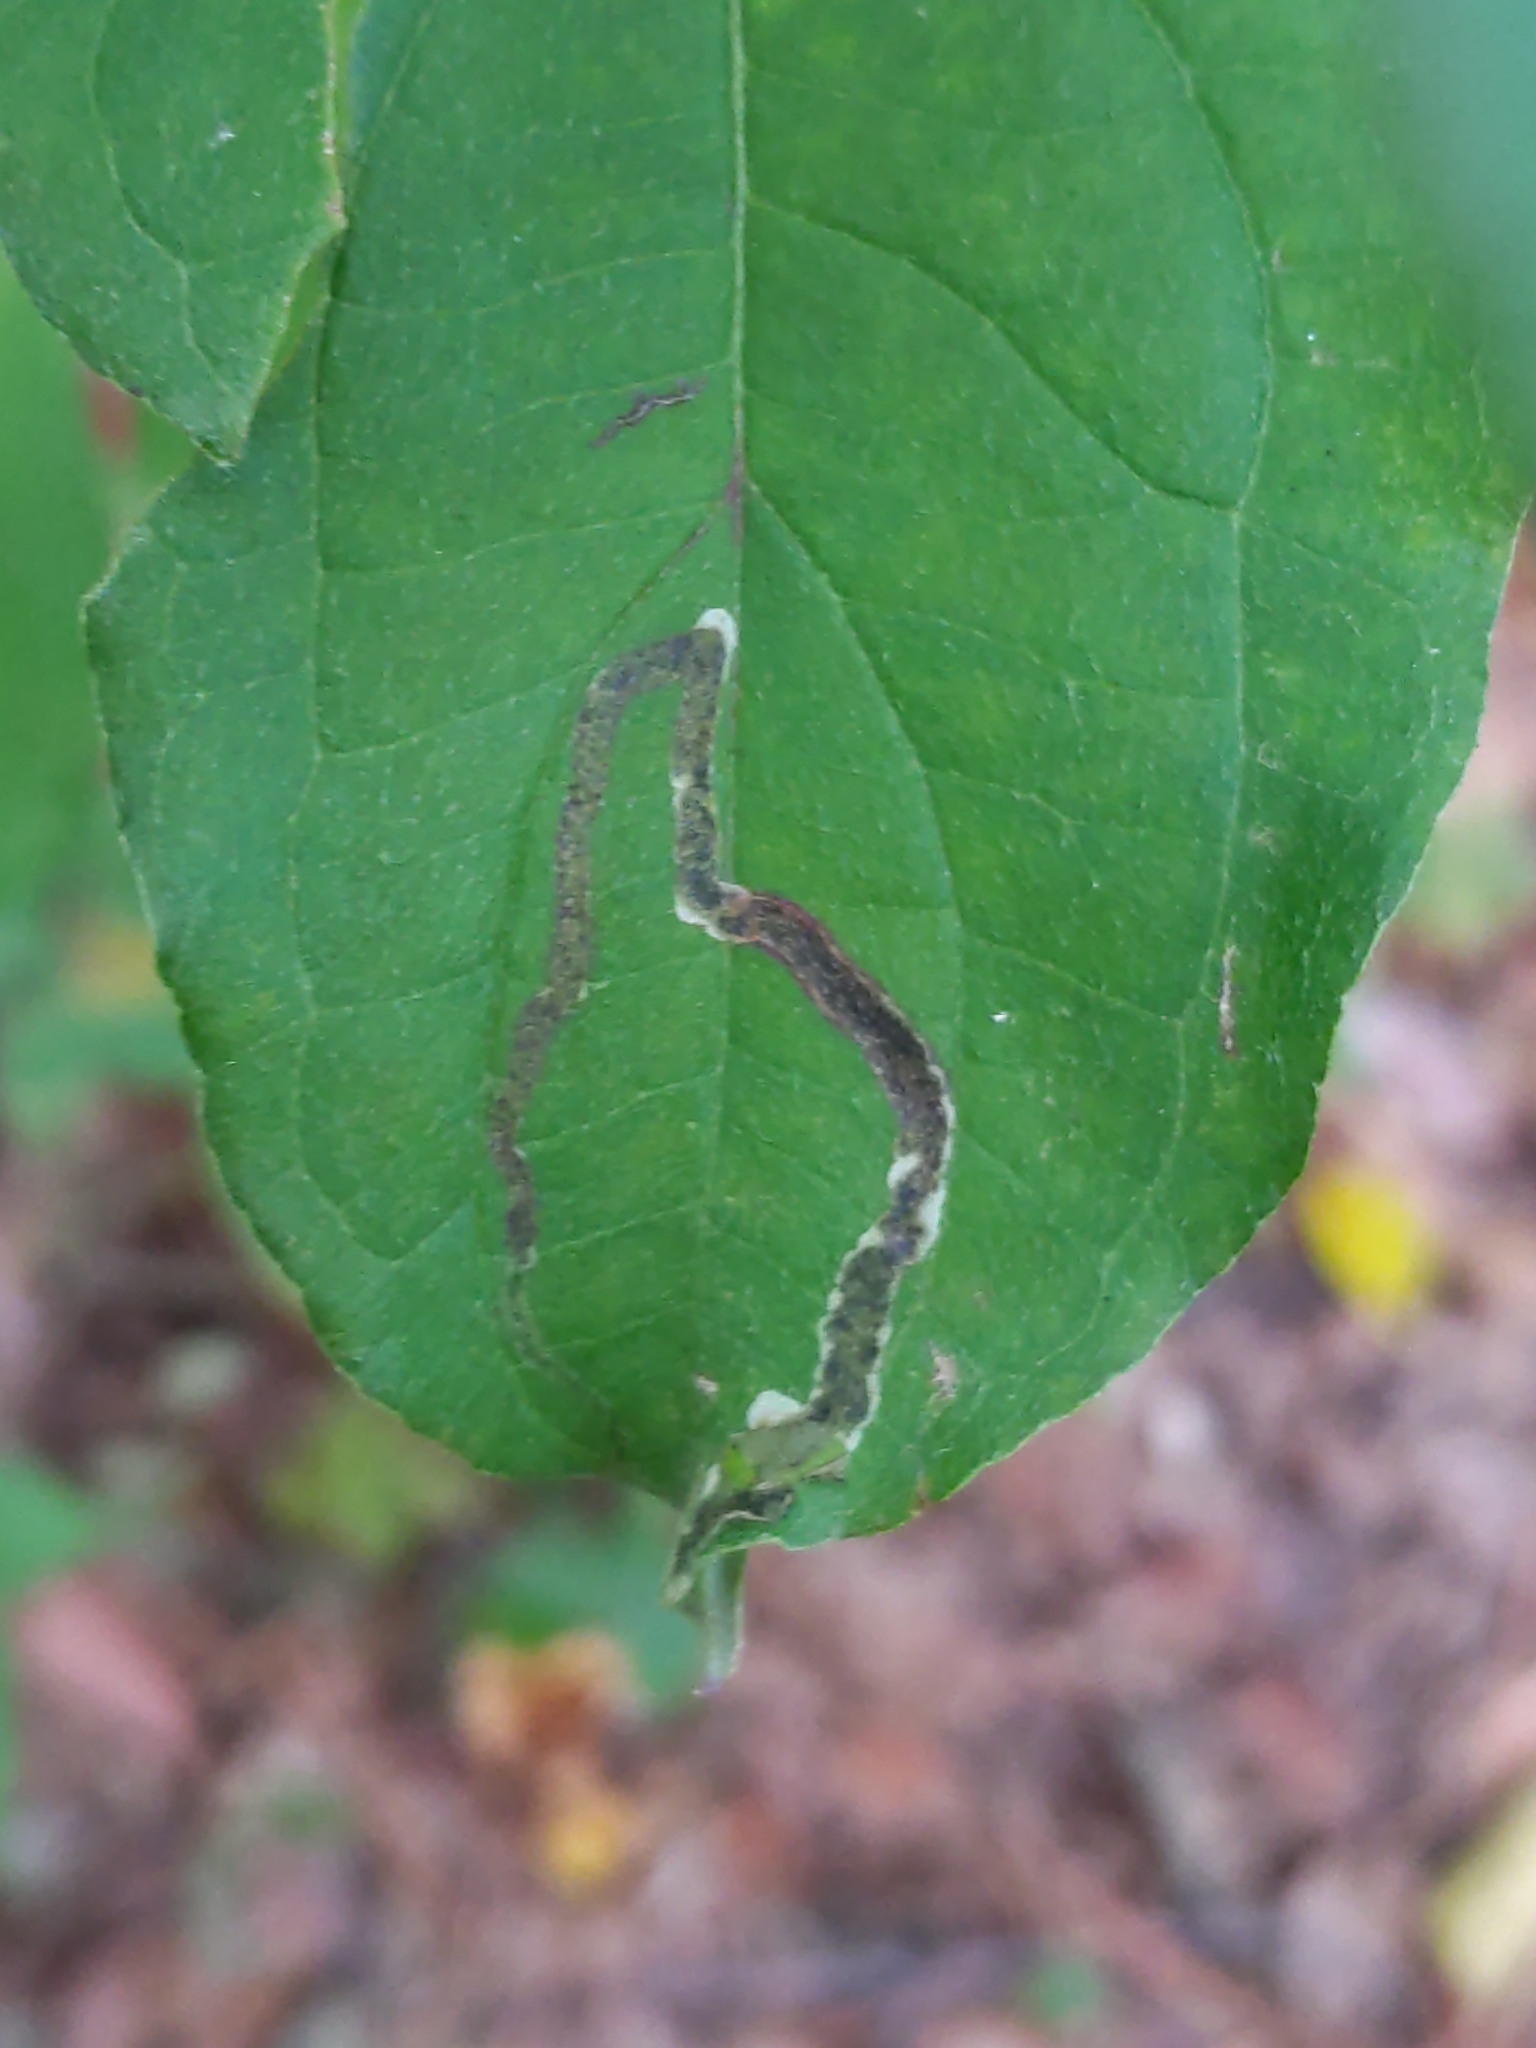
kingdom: Animalia
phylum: Arthropoda
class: Insecta
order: Diptera
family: Agromyzidae
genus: Phytomyza
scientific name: Phytomyza agromyzina
